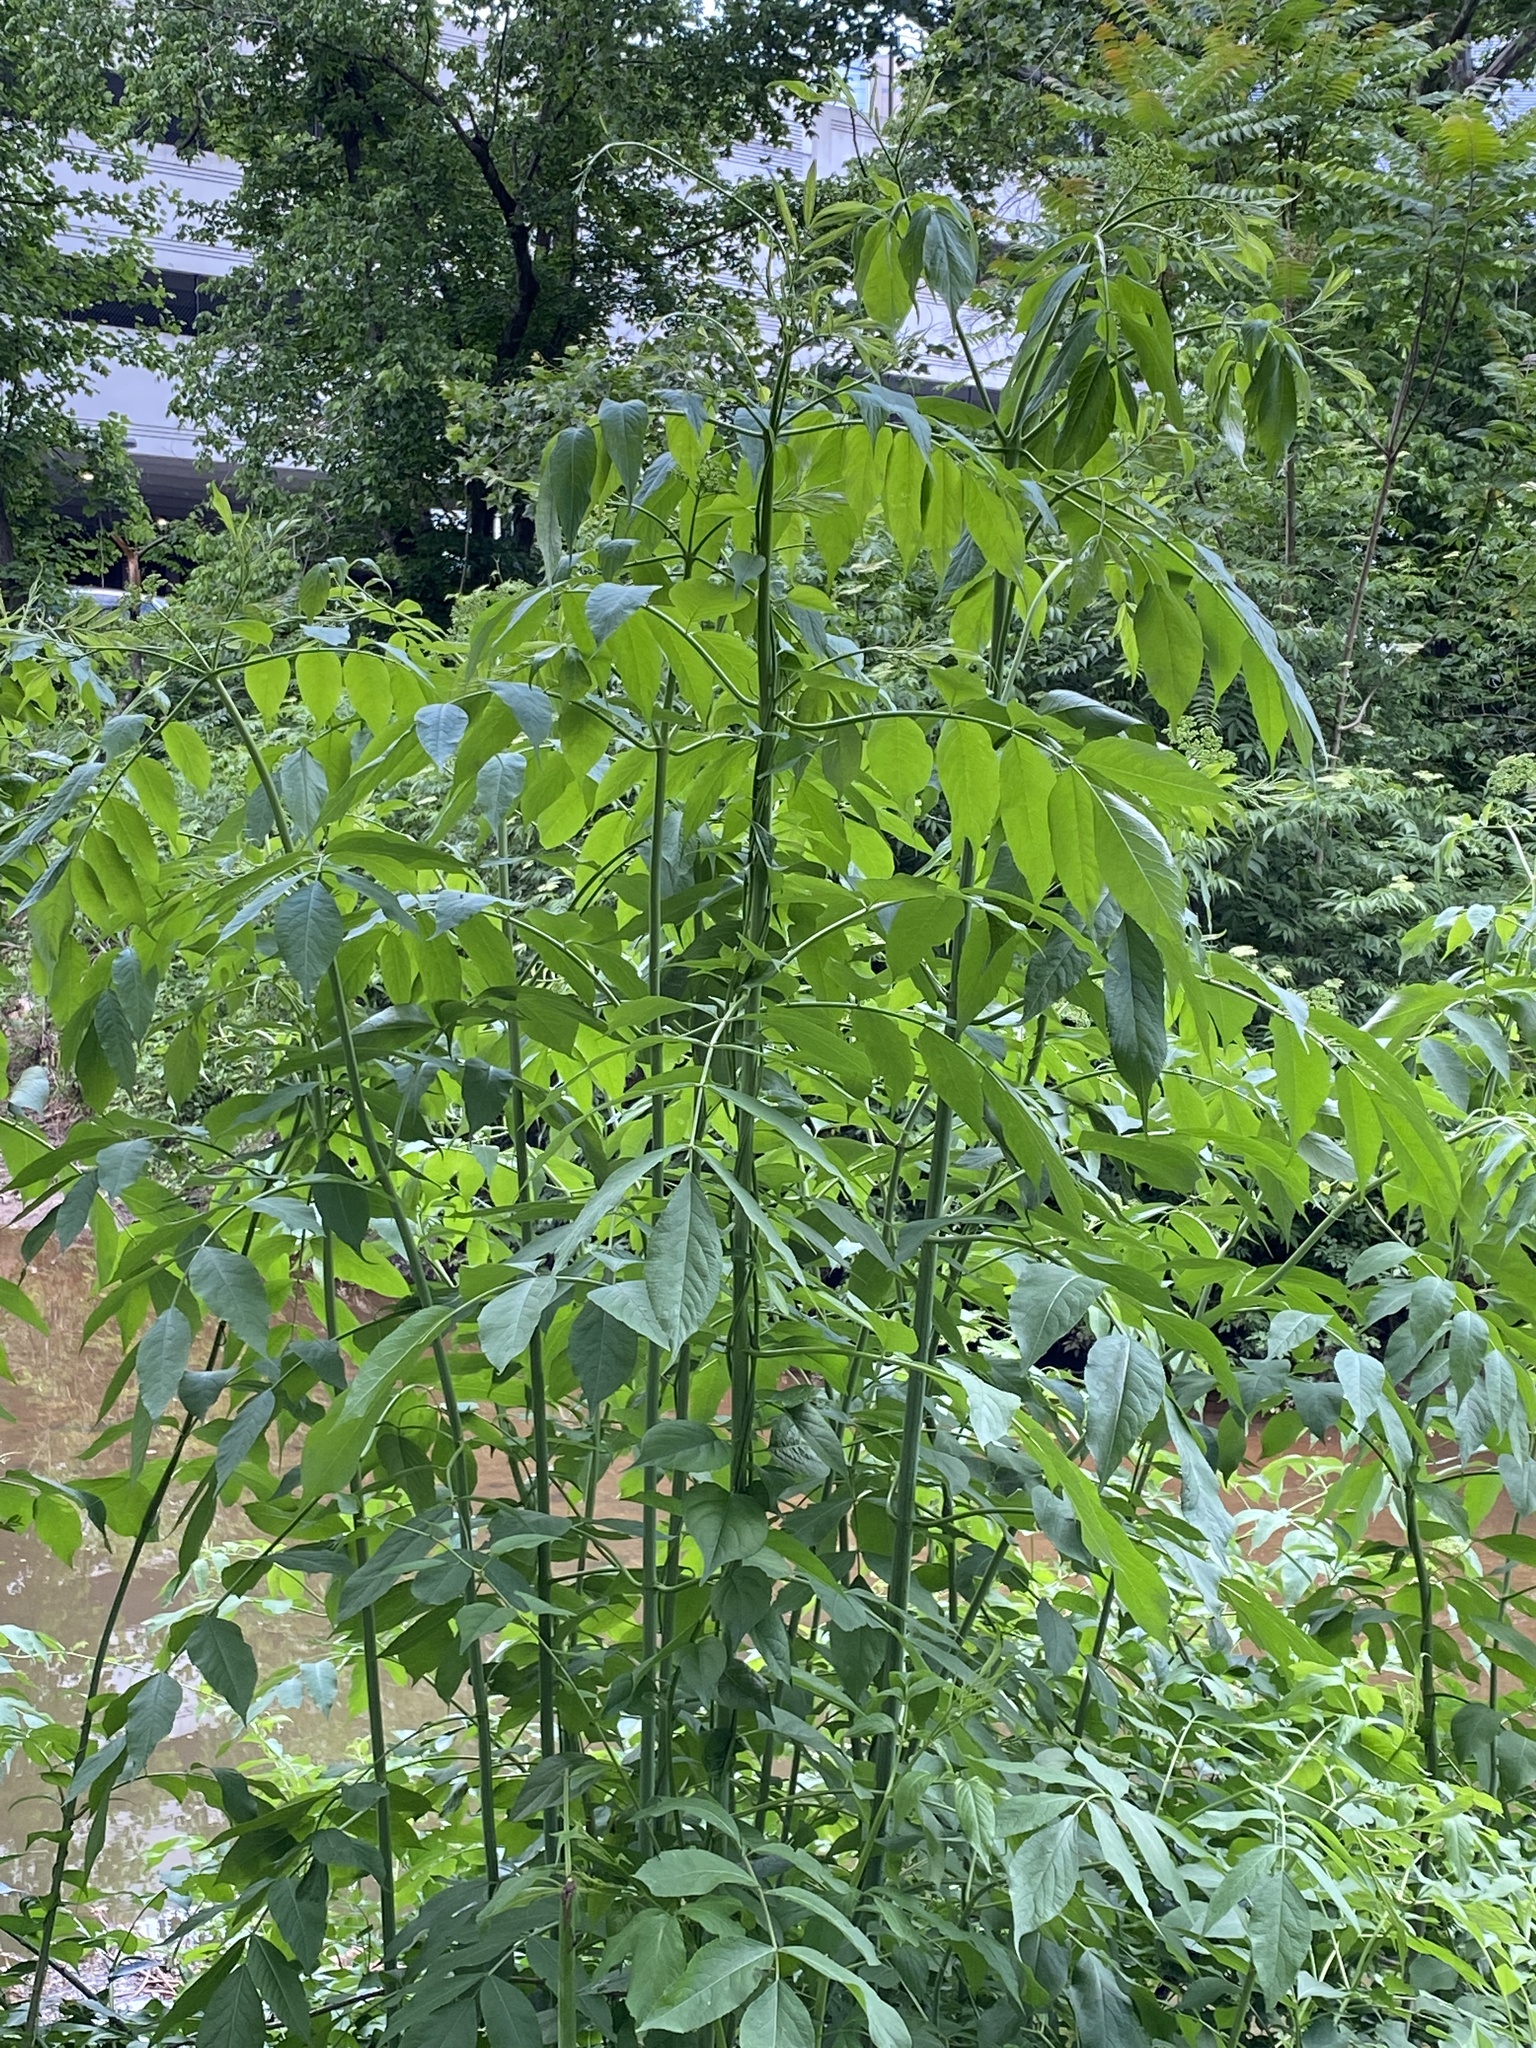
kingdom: Plantae
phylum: Tracheophyta
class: Magnoliopsida
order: Dipsacales
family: Viburnaceae
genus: Sambucus
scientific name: Sambucus canadensis
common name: American elder
